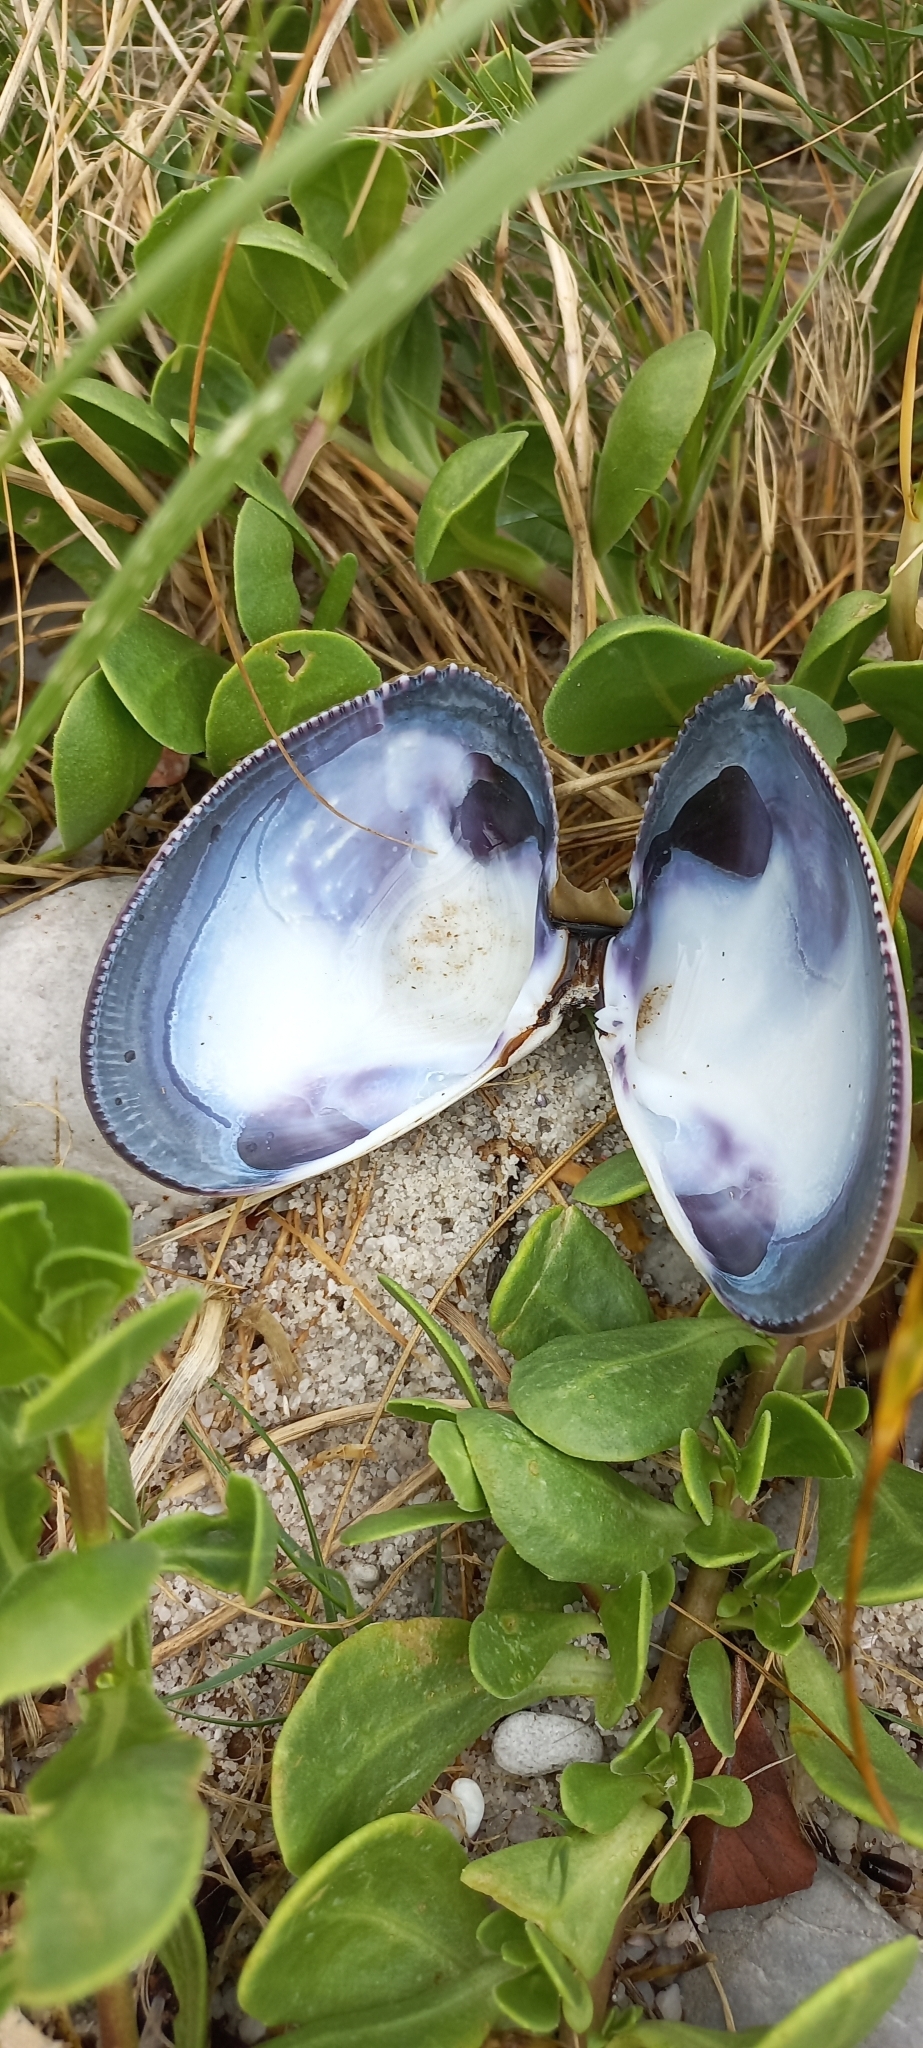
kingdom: Animalia
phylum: Mollusca
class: Bivalvia
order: Cardiida
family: Donacidae
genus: Donax
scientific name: Donax serra
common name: Giant south african wedge clam
